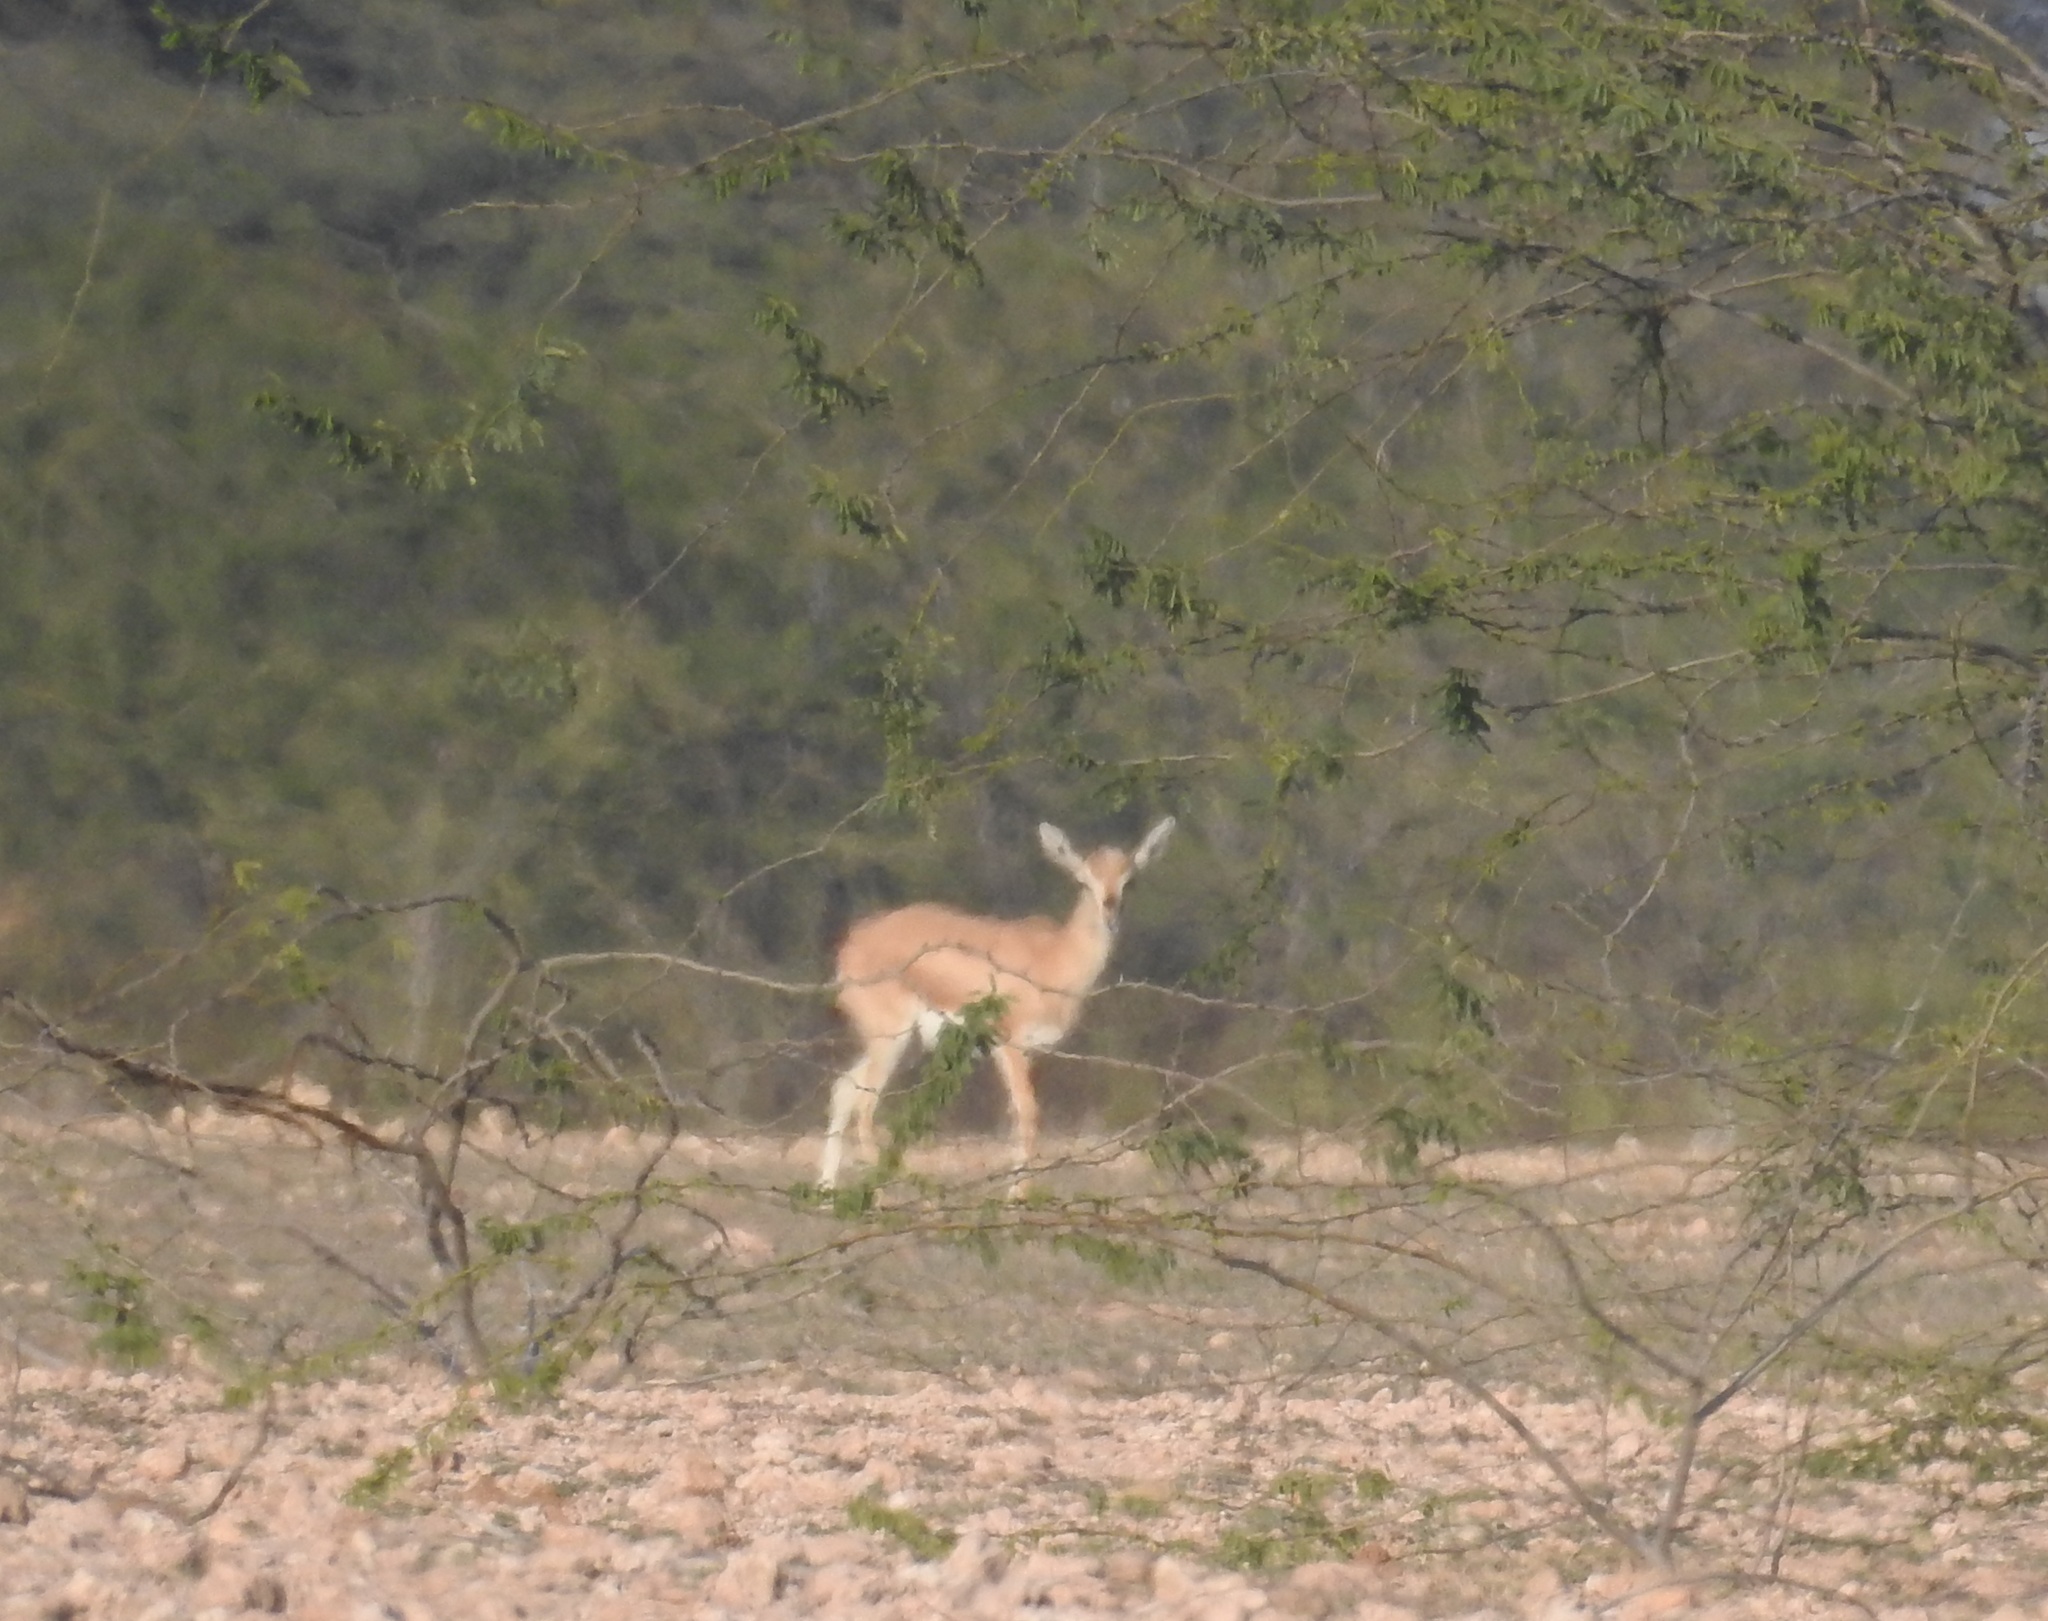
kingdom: Animalia
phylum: Chordata
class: Mammalia
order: Artiodactyla
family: Bovidae
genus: Gazella
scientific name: Gazella bennettii
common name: Indian gazelle
